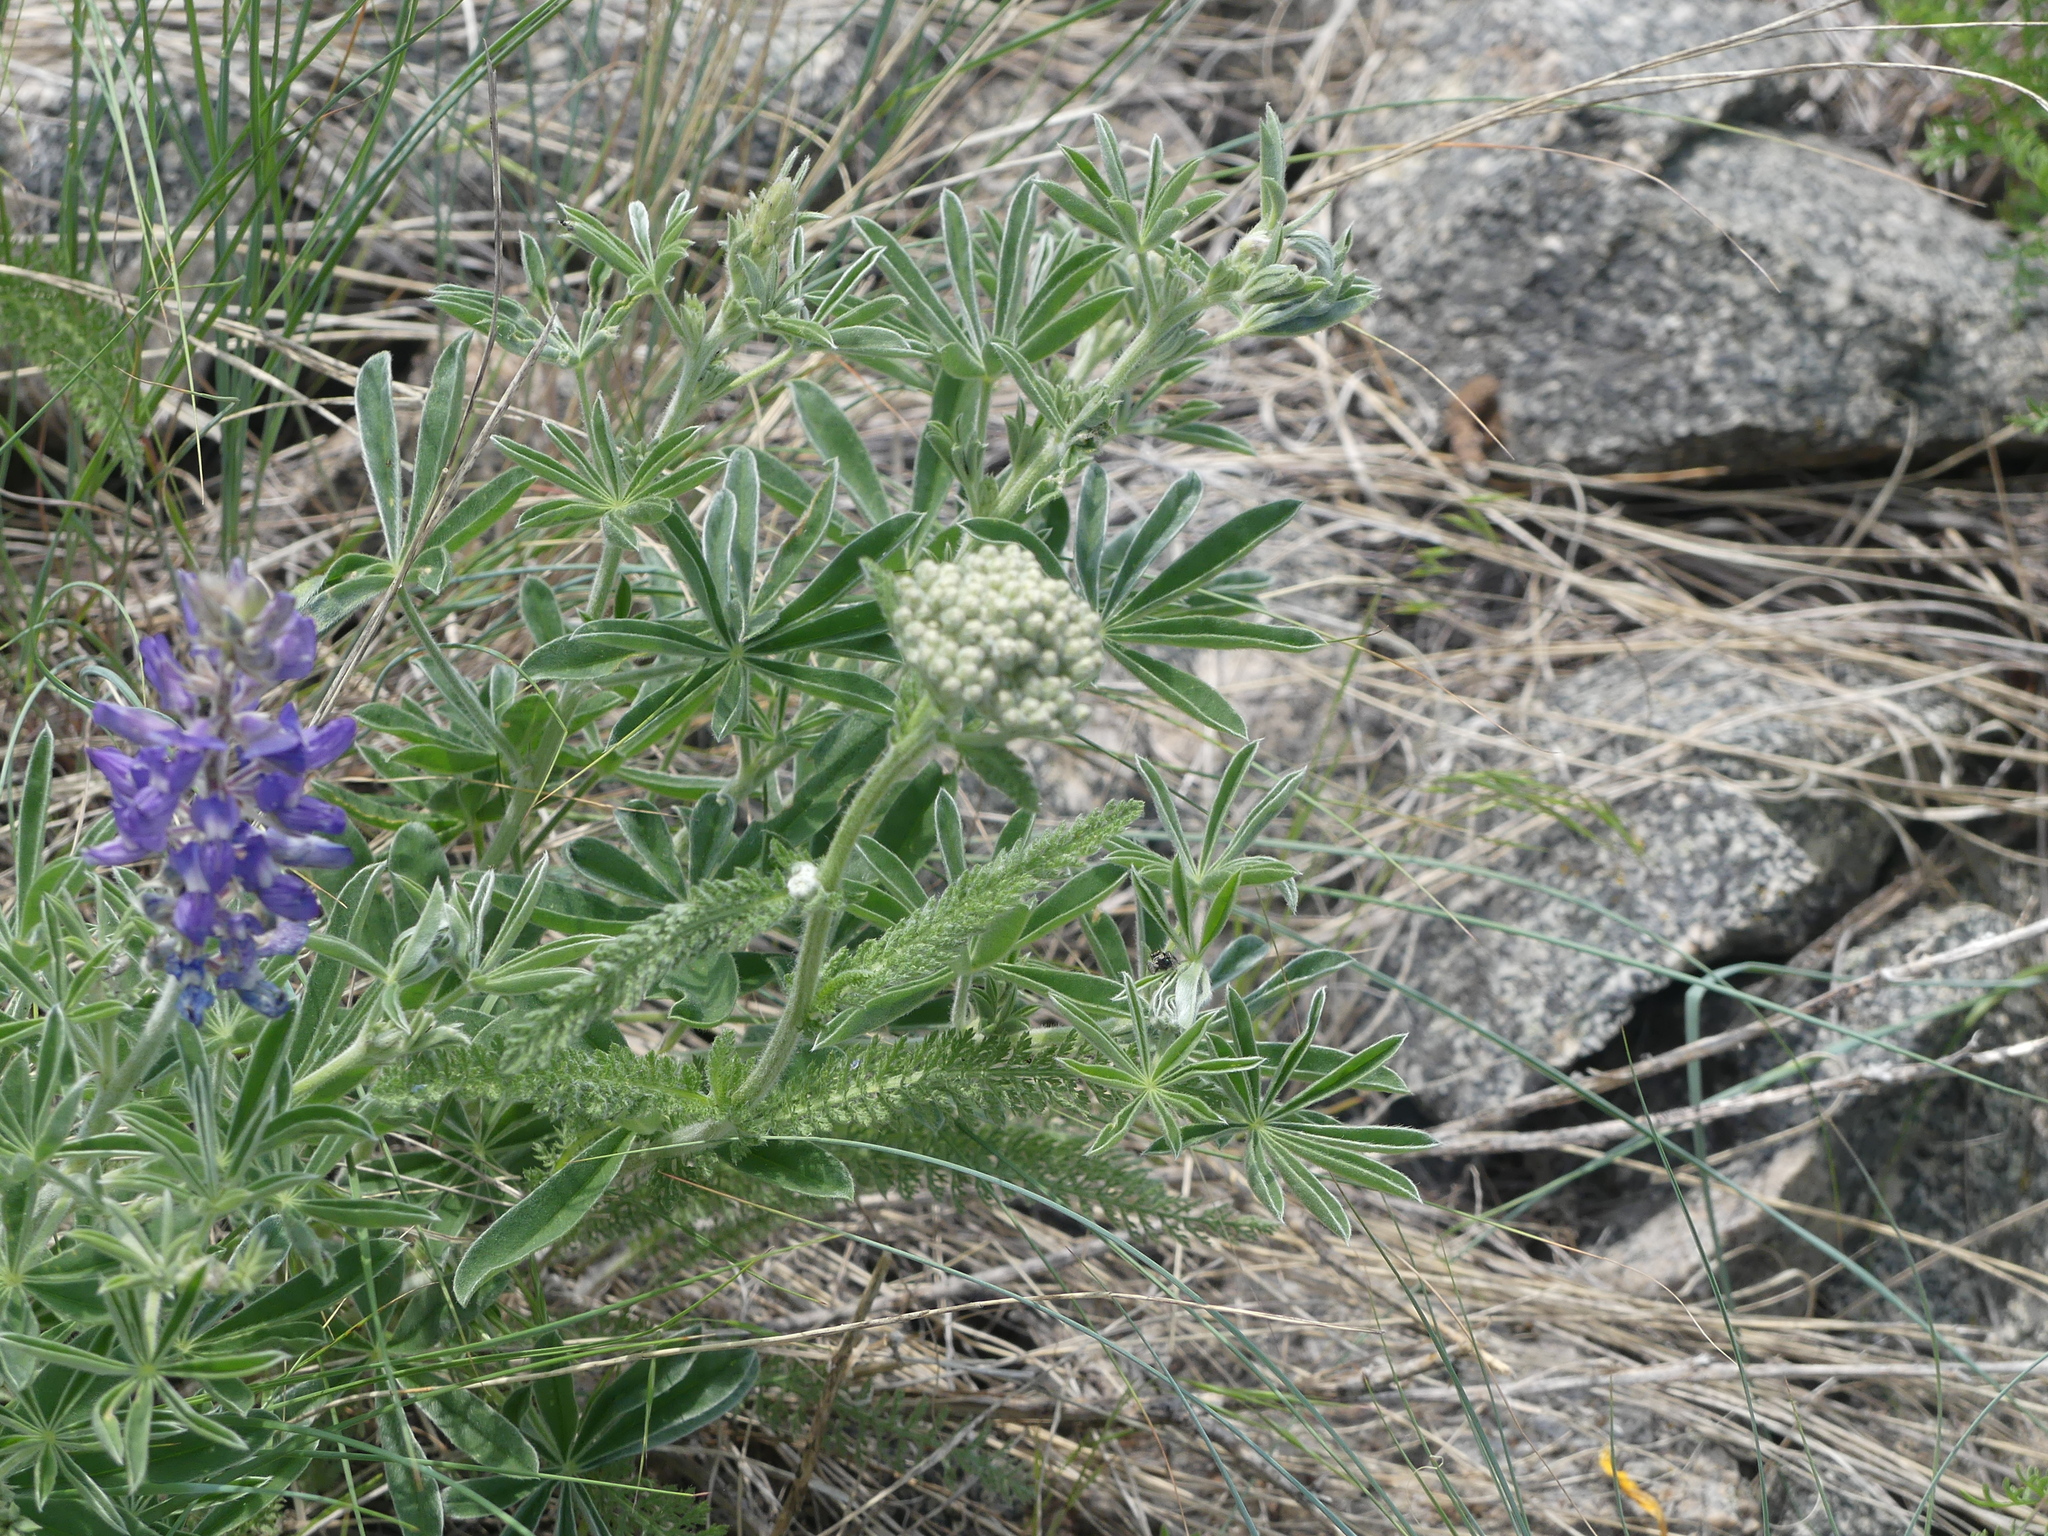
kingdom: Plantae
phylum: Tracheophyta
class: Magnoliopsida
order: Asterales
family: Asteraceae
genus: Achillea
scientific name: Achillea millefolium
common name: Yarrow
